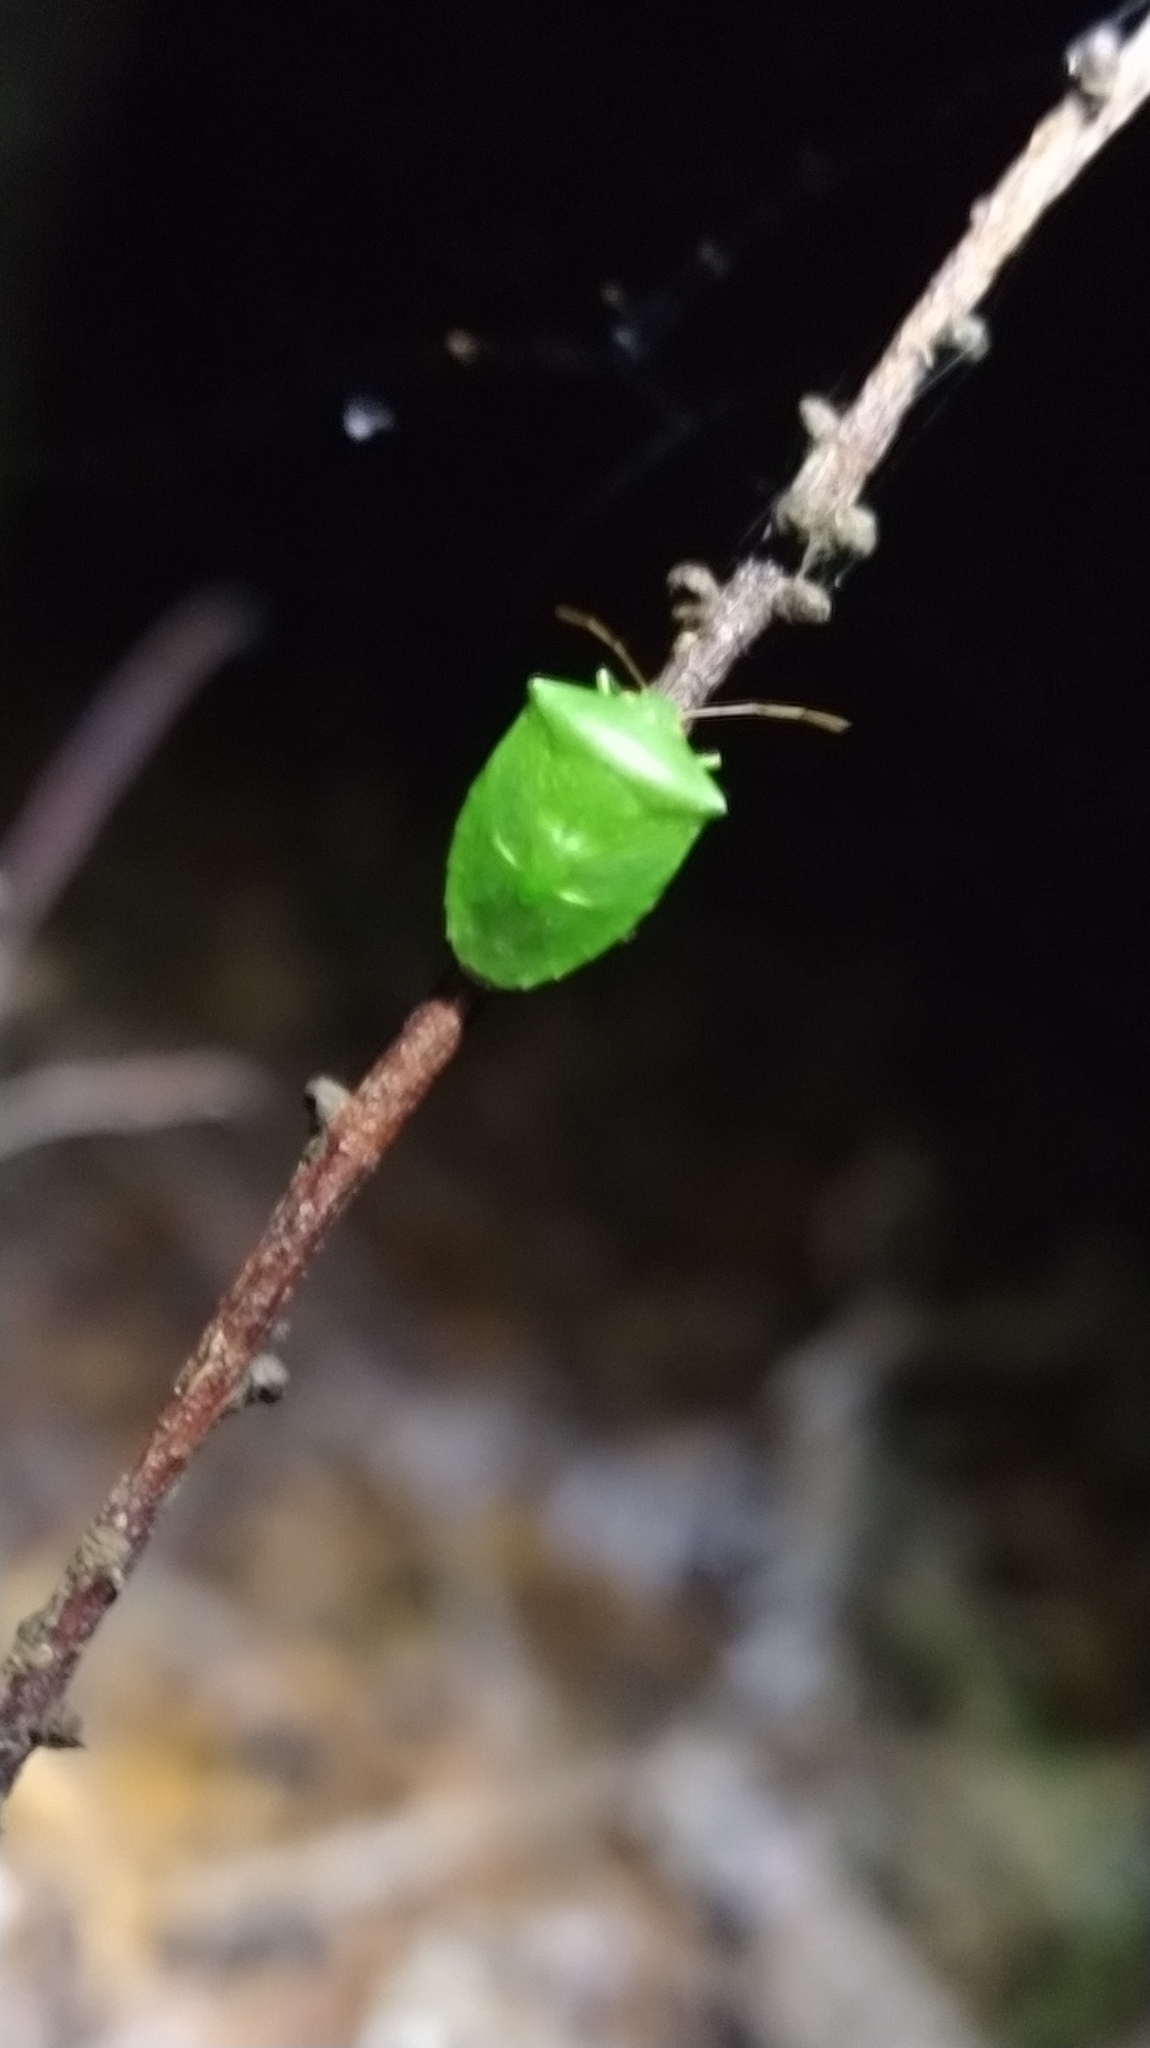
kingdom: Animalia
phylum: Arthropoda
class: Insecta
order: Hemiptera
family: Pentatomidae
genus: Cuspicona
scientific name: Cuspicona simplex
